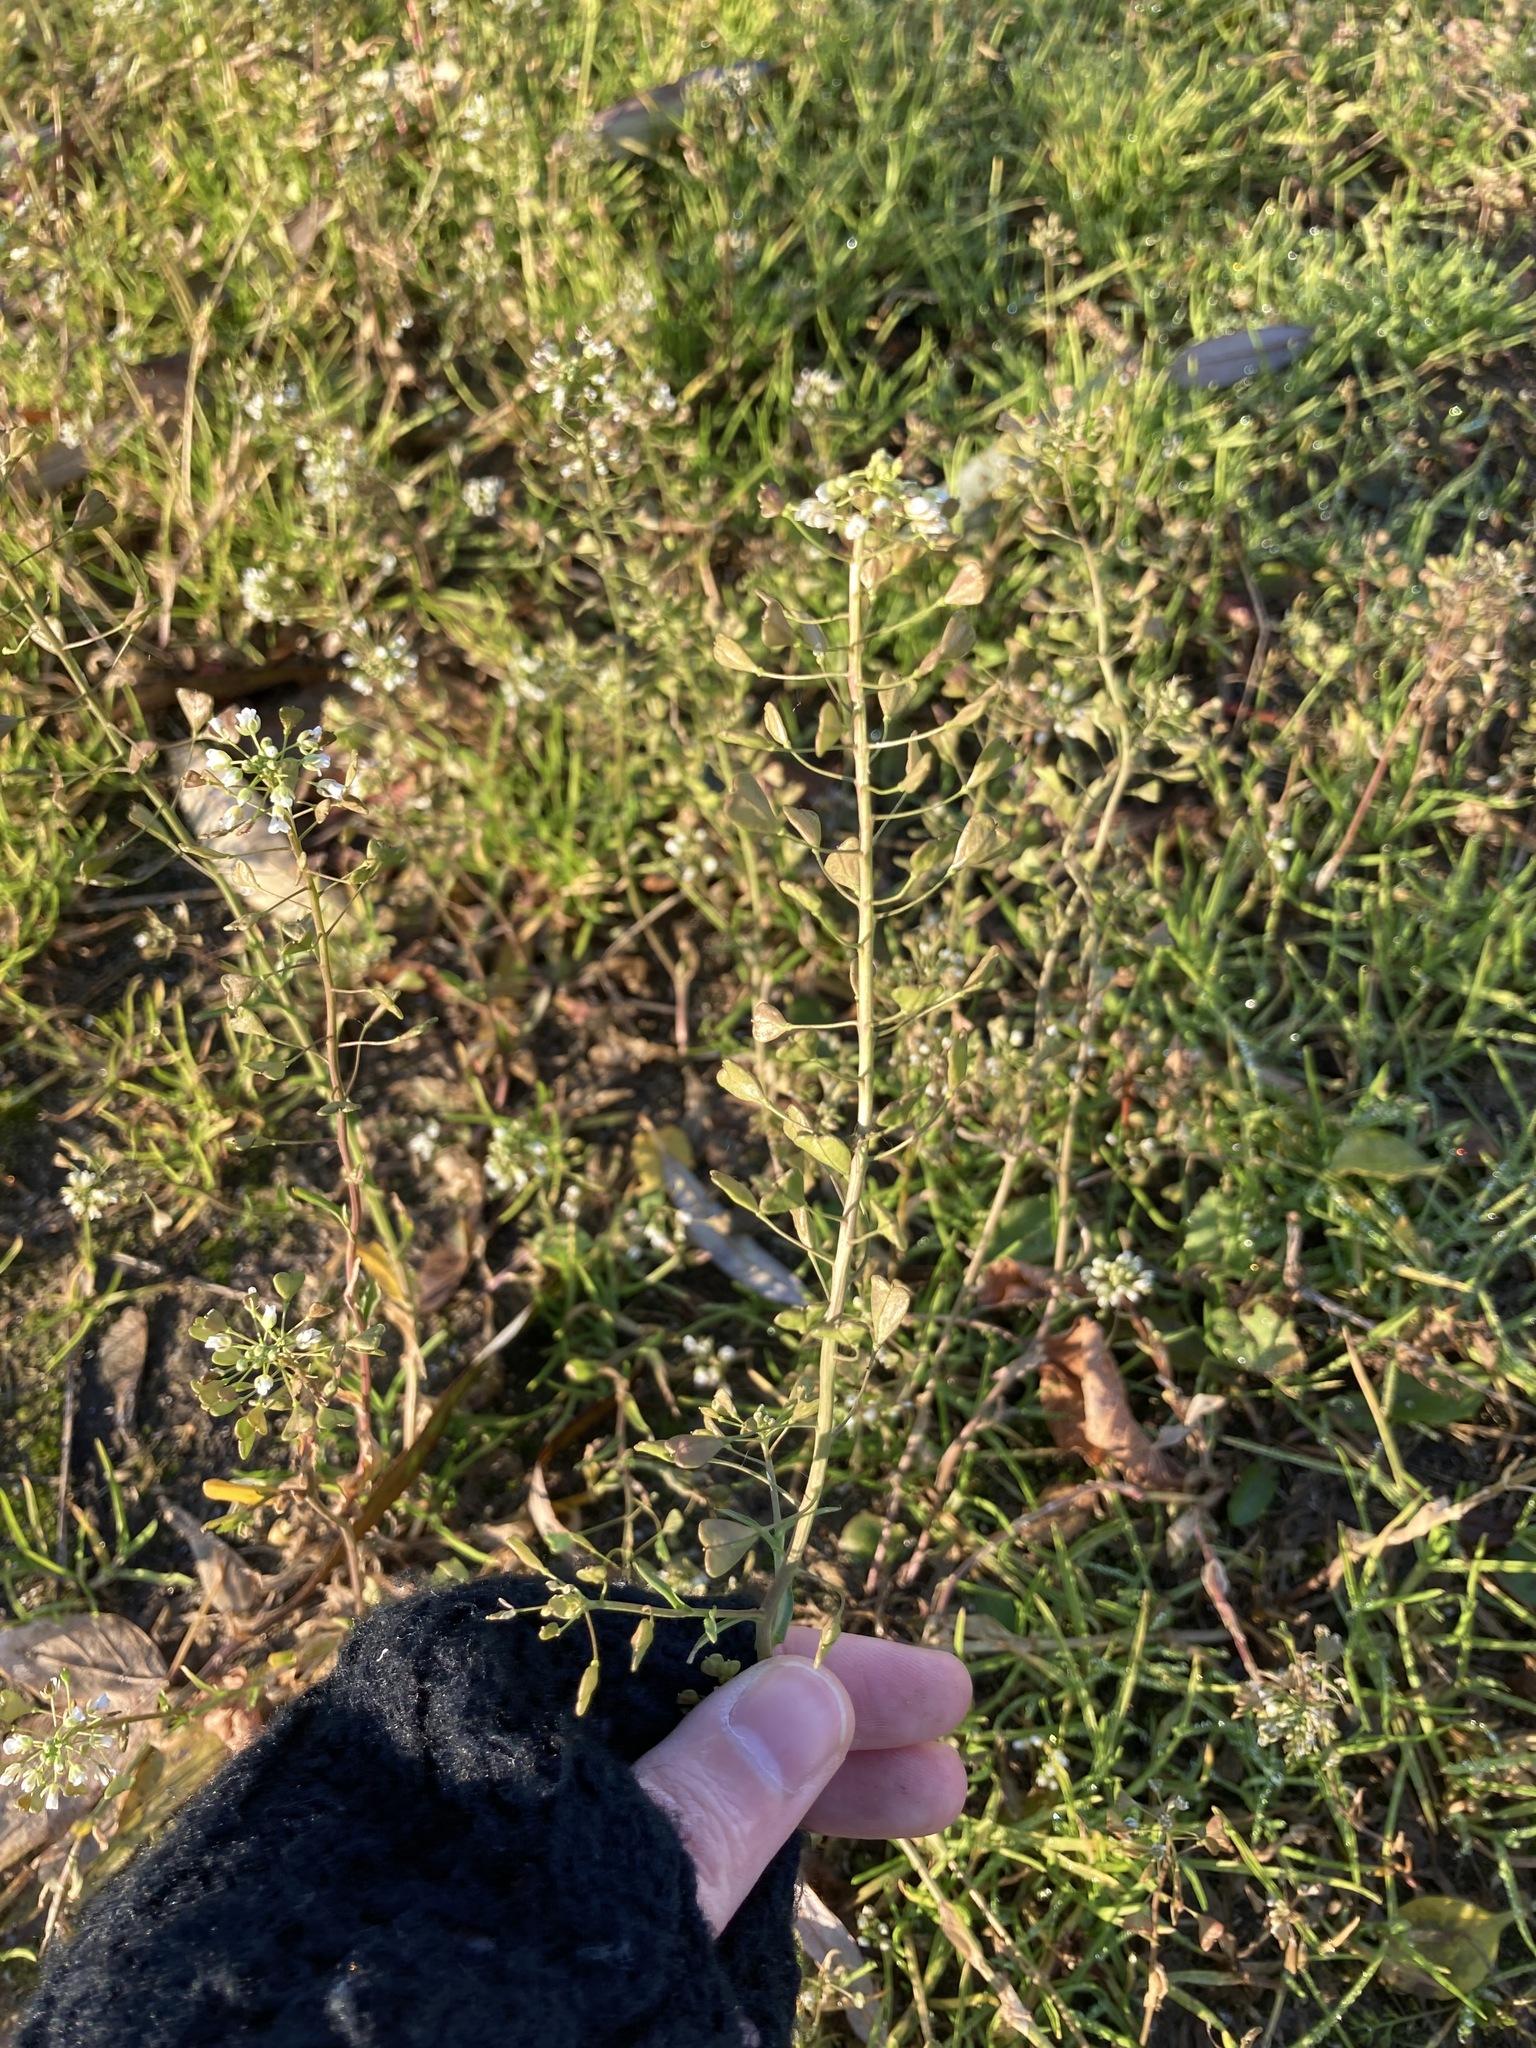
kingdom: Plantae
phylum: Tracheophyta
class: Magnoliopsida
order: Brassicales
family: Brassicaceae
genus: Capsella
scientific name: Capsella bursa-pastoris
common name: Shepherd's purse
